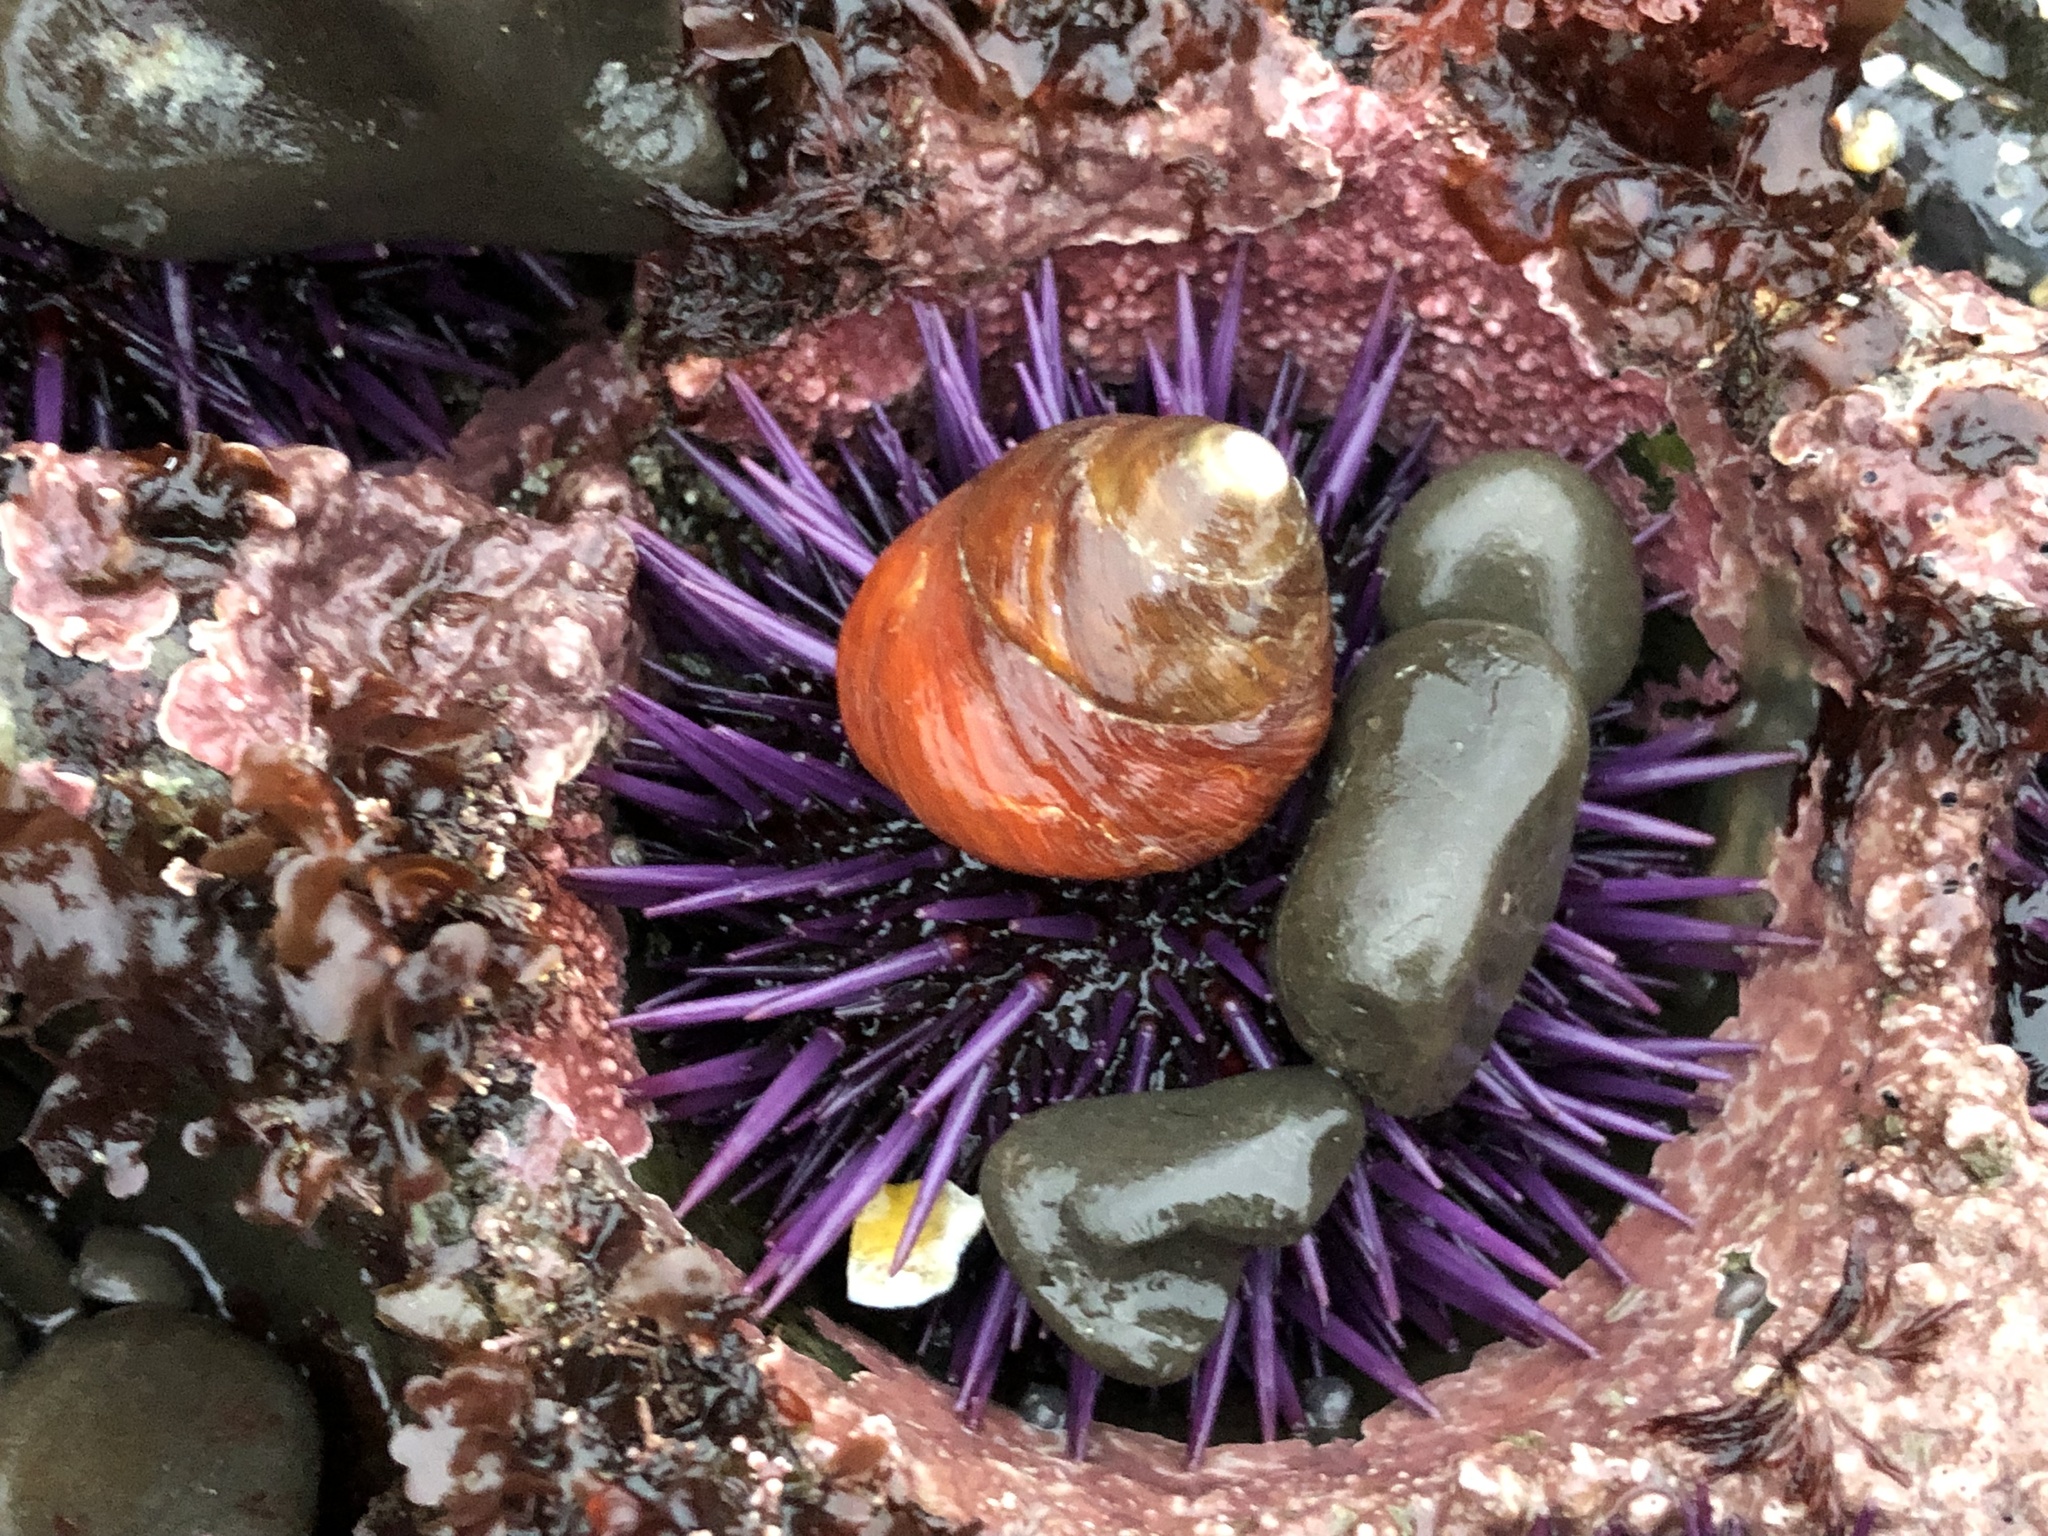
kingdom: Animalia
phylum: Echinodermata
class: Echinoidea
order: Camarodonta
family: Strongylocentrotidae
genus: Strongylocentrotus
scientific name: Strongylocentrotus purpuratus
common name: Purple sea urchin
